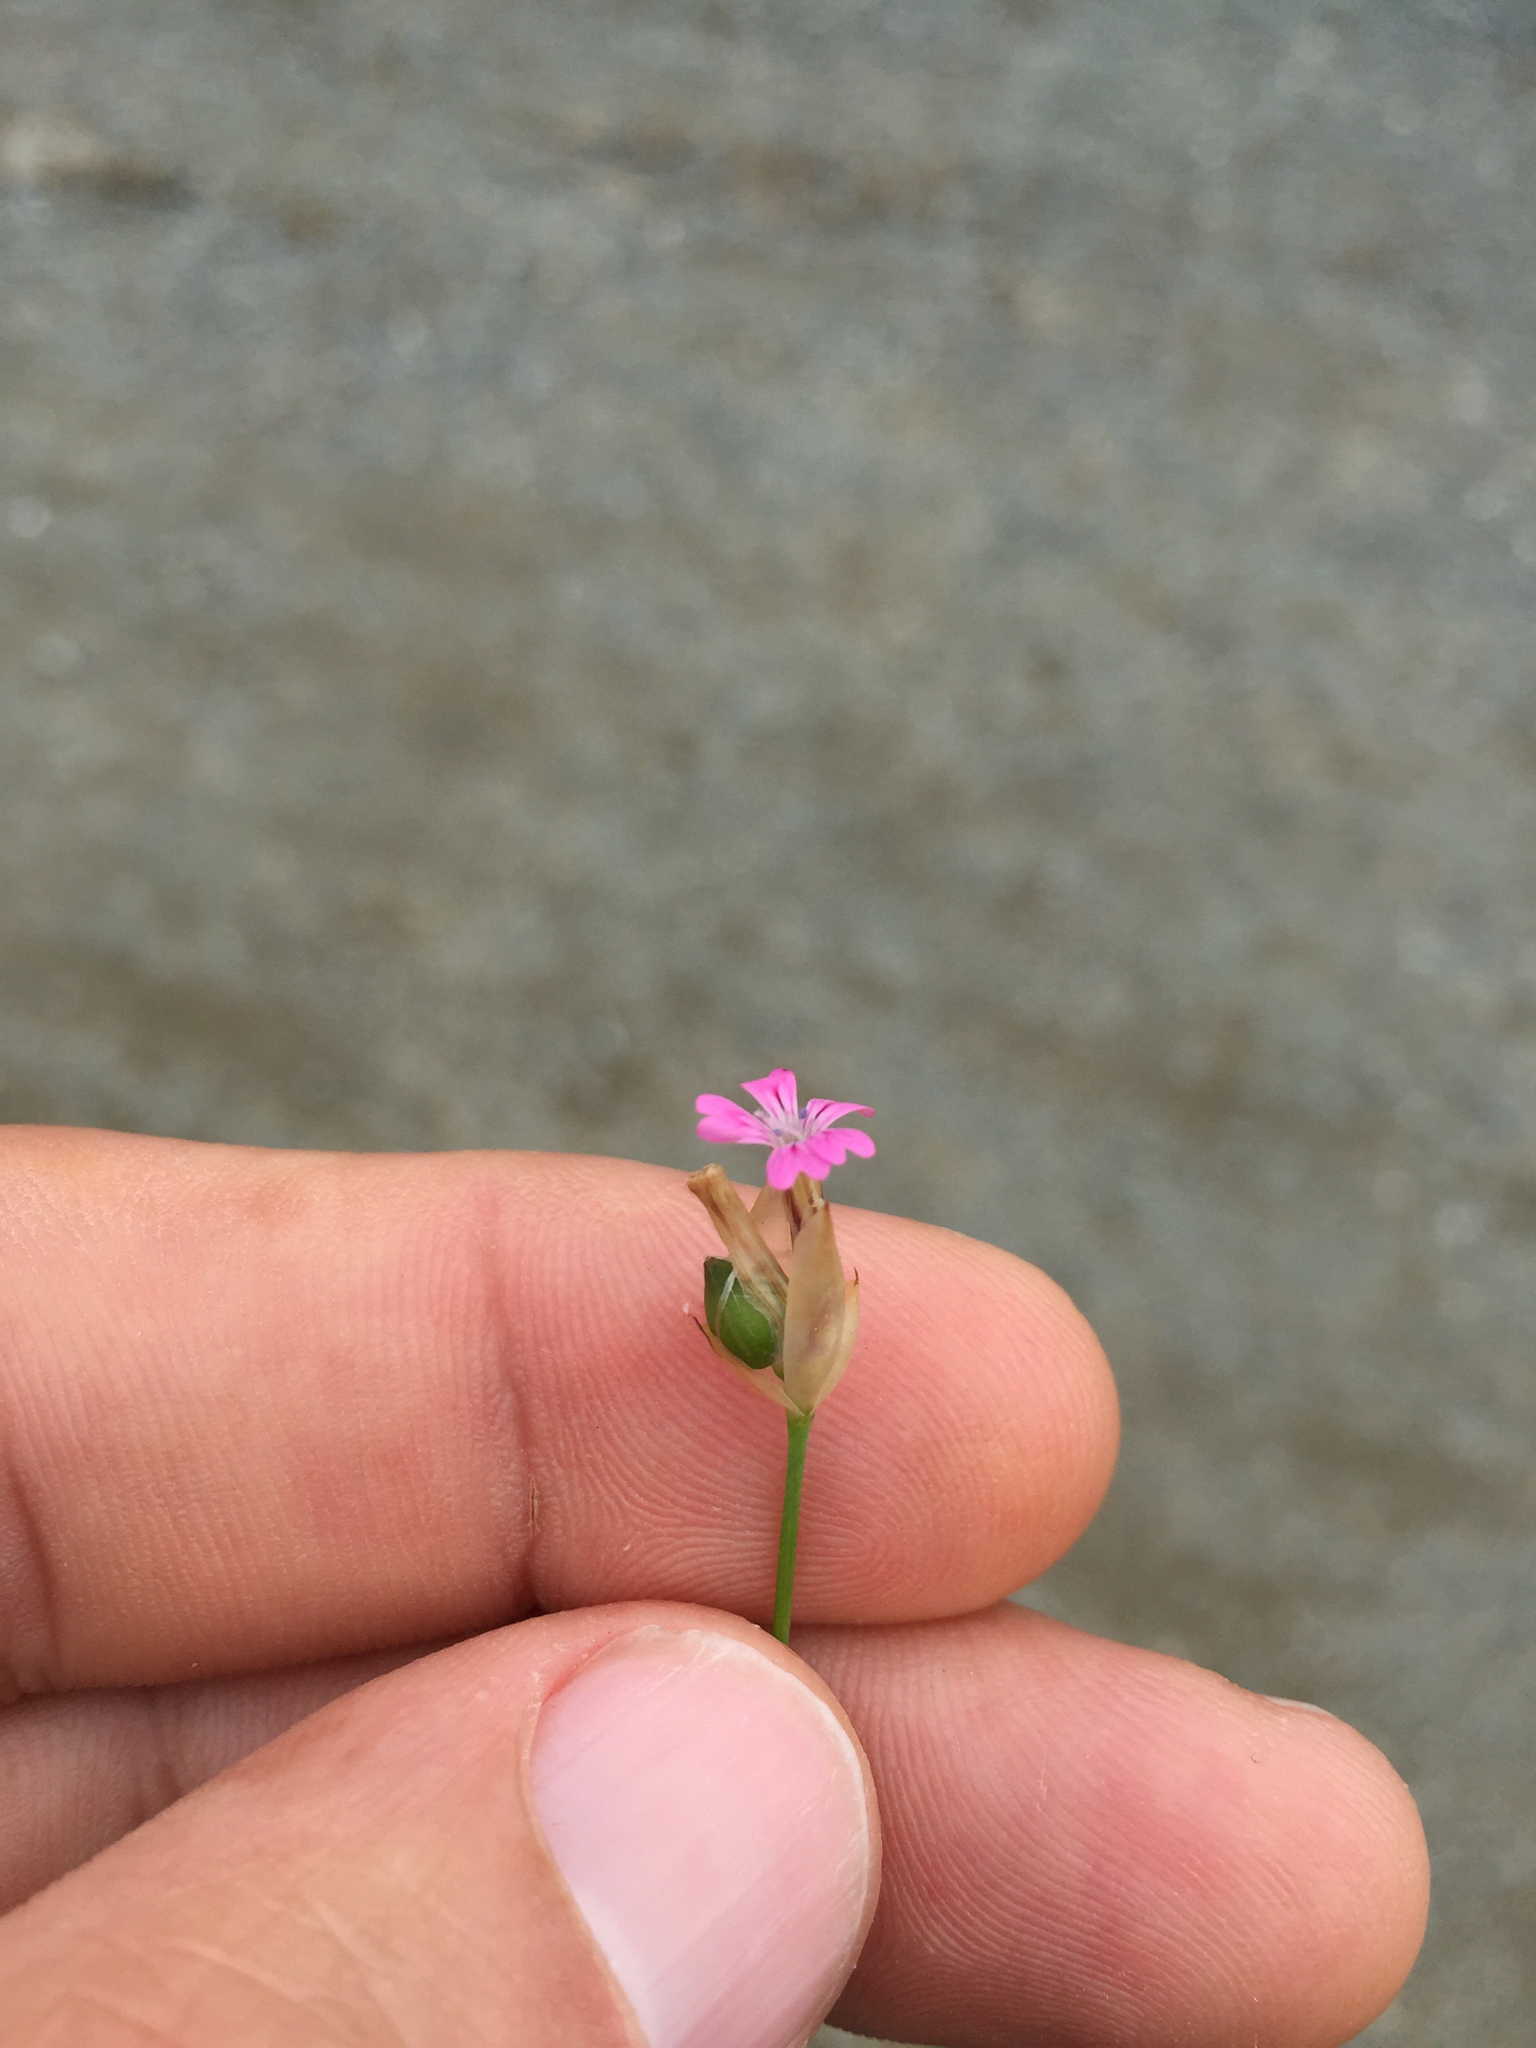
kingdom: Plantae
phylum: Tracheophyta
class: Magnoliopsida
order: Caryophyllales
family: Caryophyllaceae
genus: Petrorhagia
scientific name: Petrorhagia dubia
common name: Hairypink
